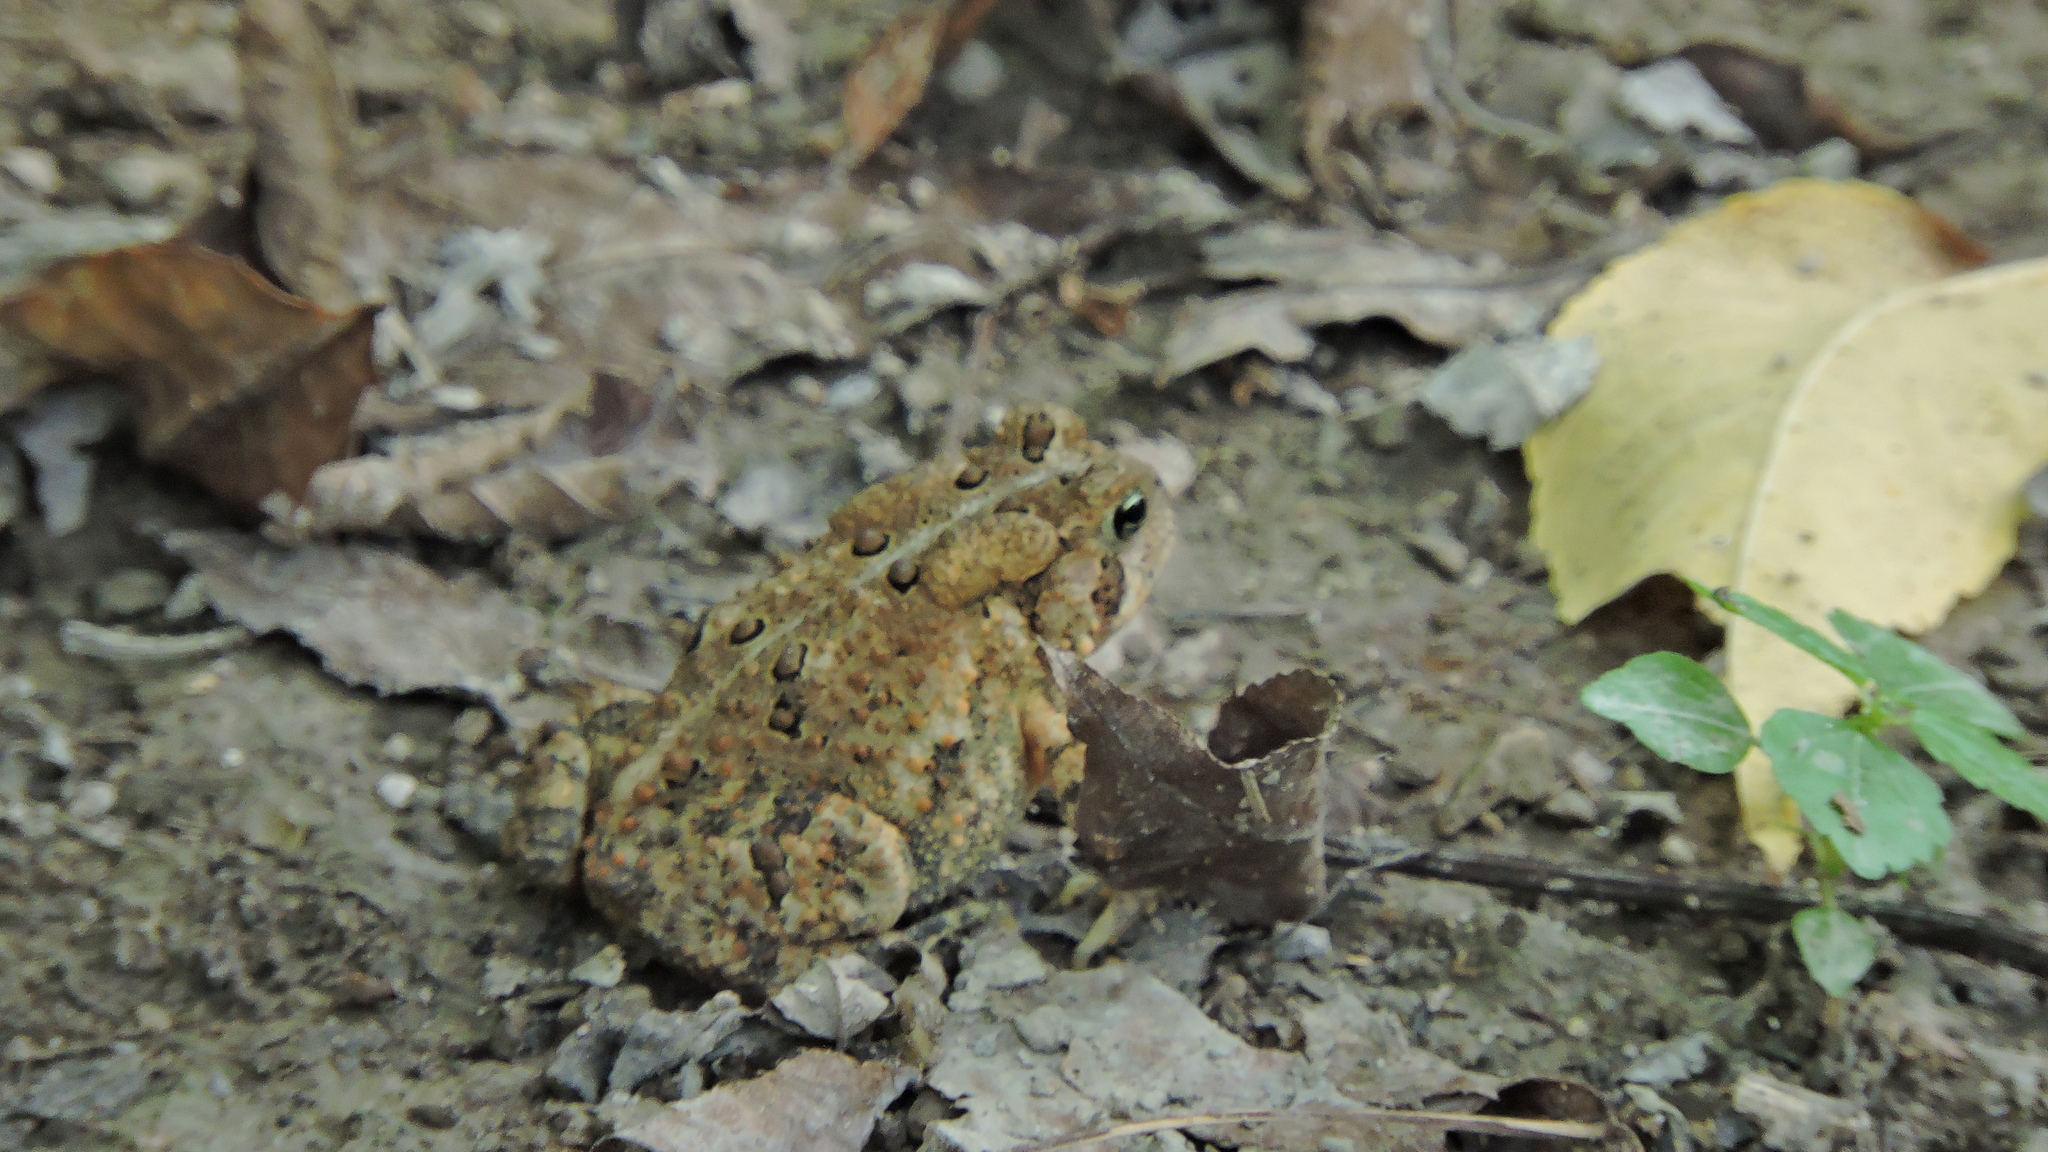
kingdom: Animalia
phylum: Chordata
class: Amphibia
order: Anura
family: Bufonidae
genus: Anaxyrus
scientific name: Anaxyrus americanus
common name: American toad
